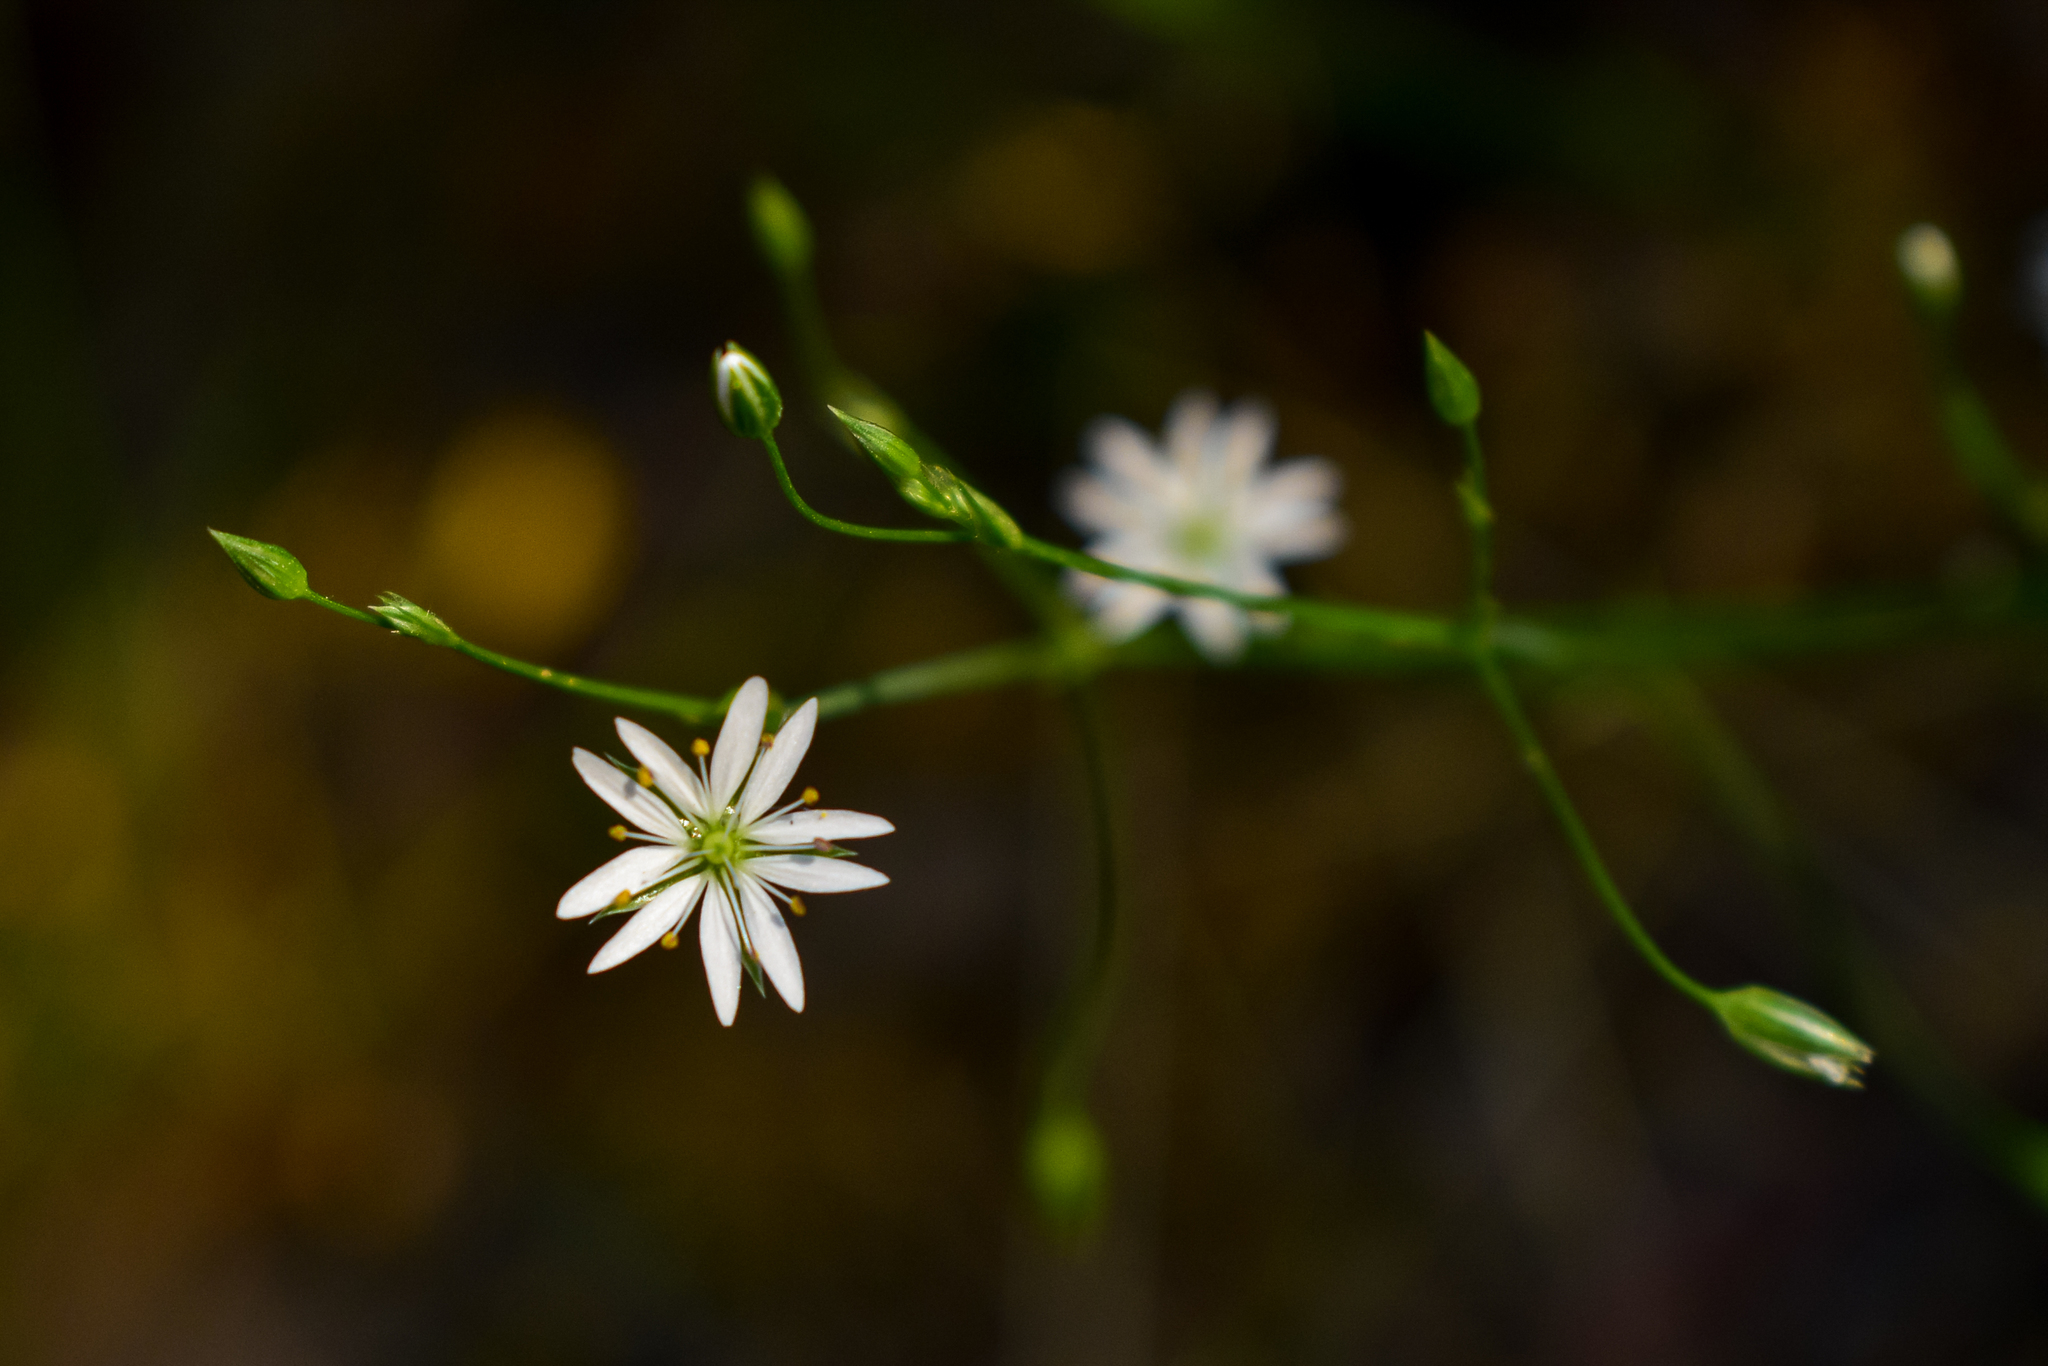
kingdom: Plantae
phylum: Tracheophyta
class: Magnoliopsida
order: Caryophyllales
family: Caryophyllaceae
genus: Stellaria
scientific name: Stellaria graminea
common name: Grass-like starwort
